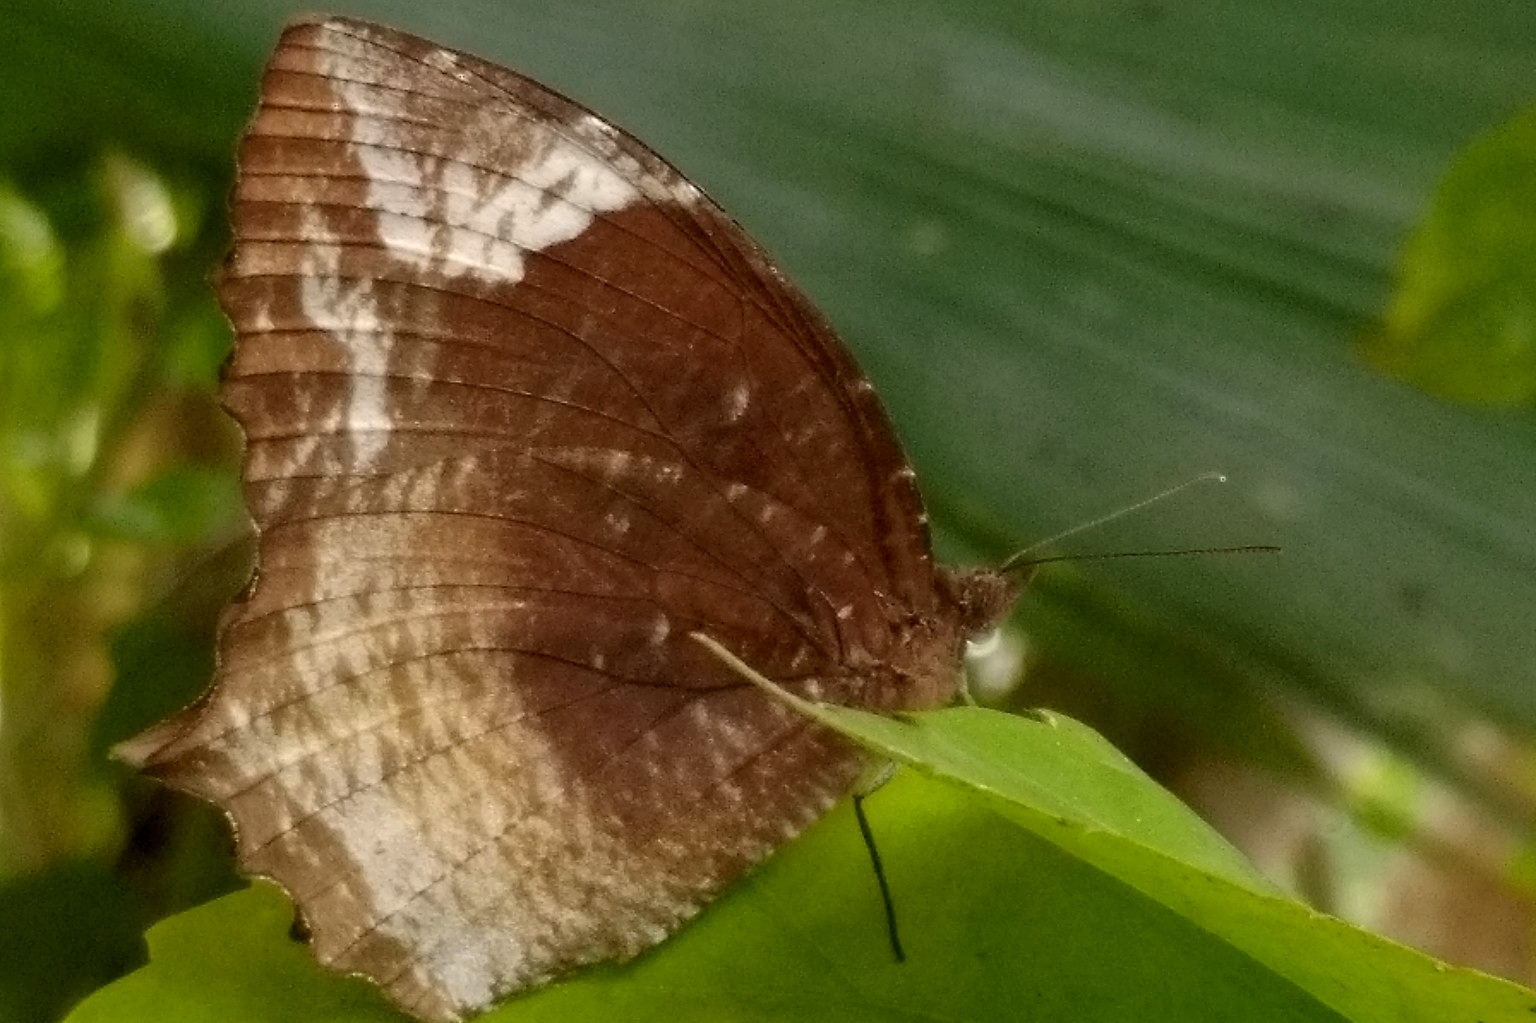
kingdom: Animalia
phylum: Arthropoda
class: Insecta
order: Lepidoptera
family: Nymphalidae
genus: Elymnias
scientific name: Elymnias caudata
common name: Tailed palmfly
